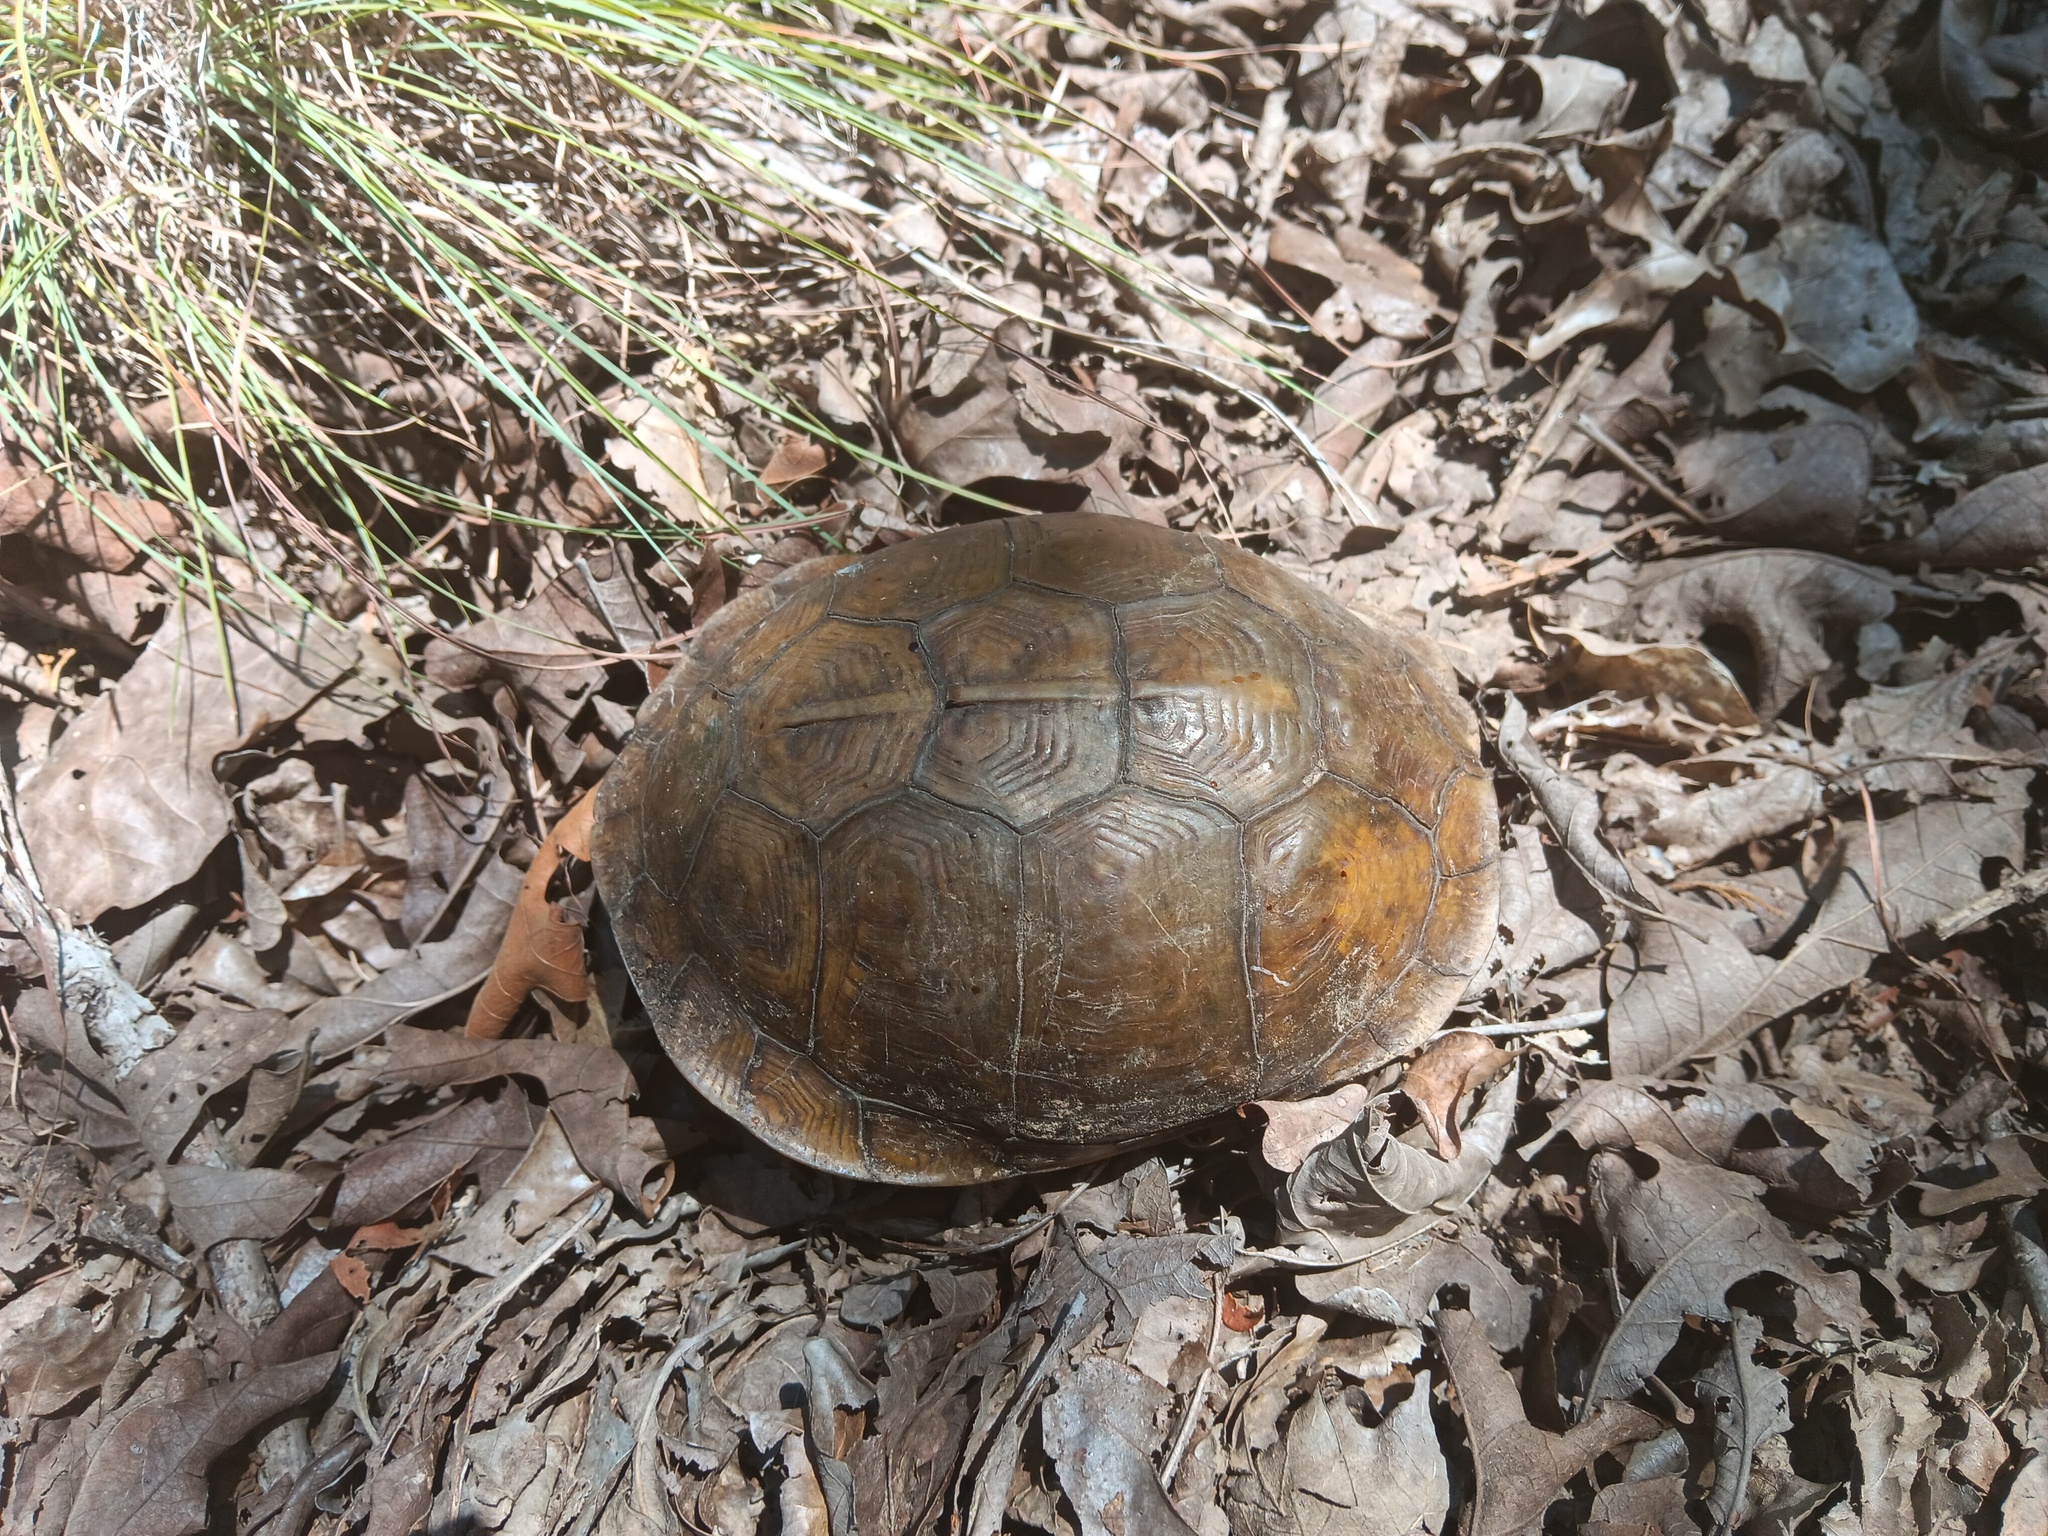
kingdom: Animalia
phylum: Chordata
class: Testudines
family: Emydidae
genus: Terrapene
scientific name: Terrapene carolina
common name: Common box turtle
